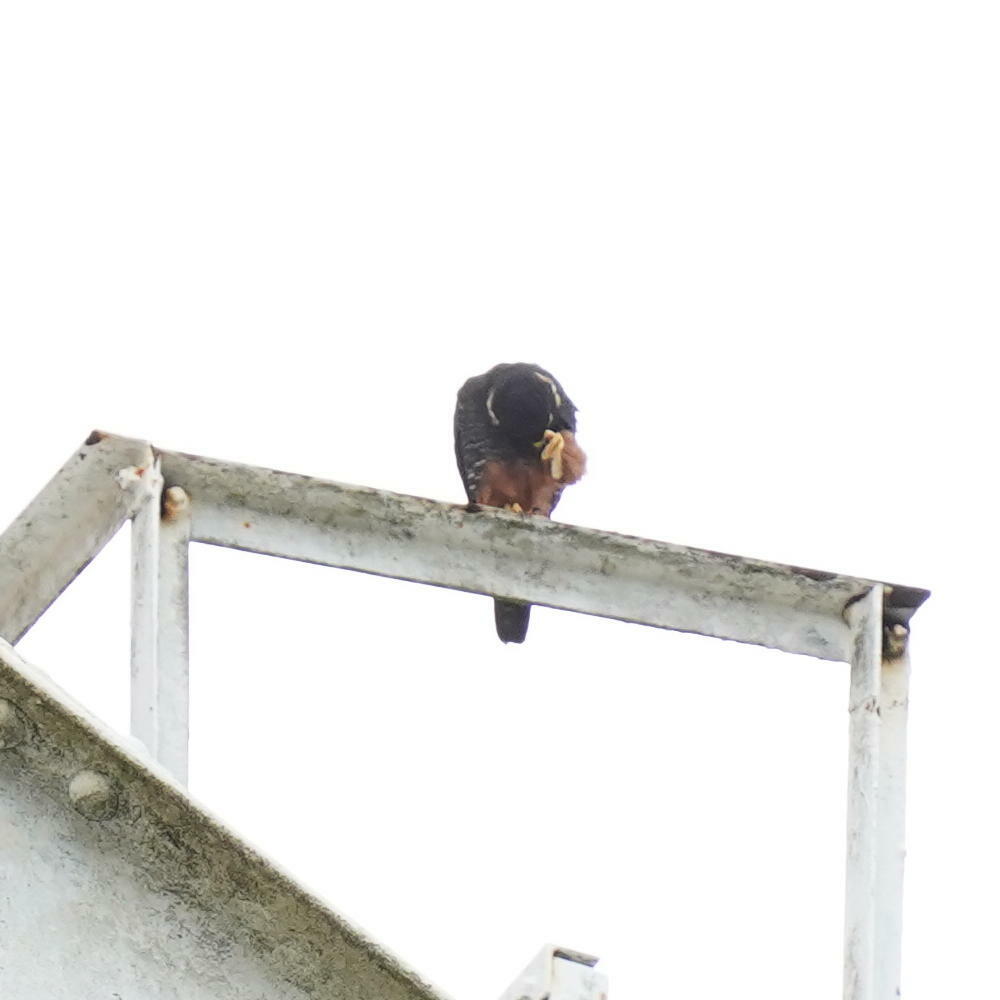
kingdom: Animalia
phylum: Chordata
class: Aves
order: Falconiformes
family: Falconidae
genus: Falco
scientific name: Falco rufigularis
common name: Bat falcon
